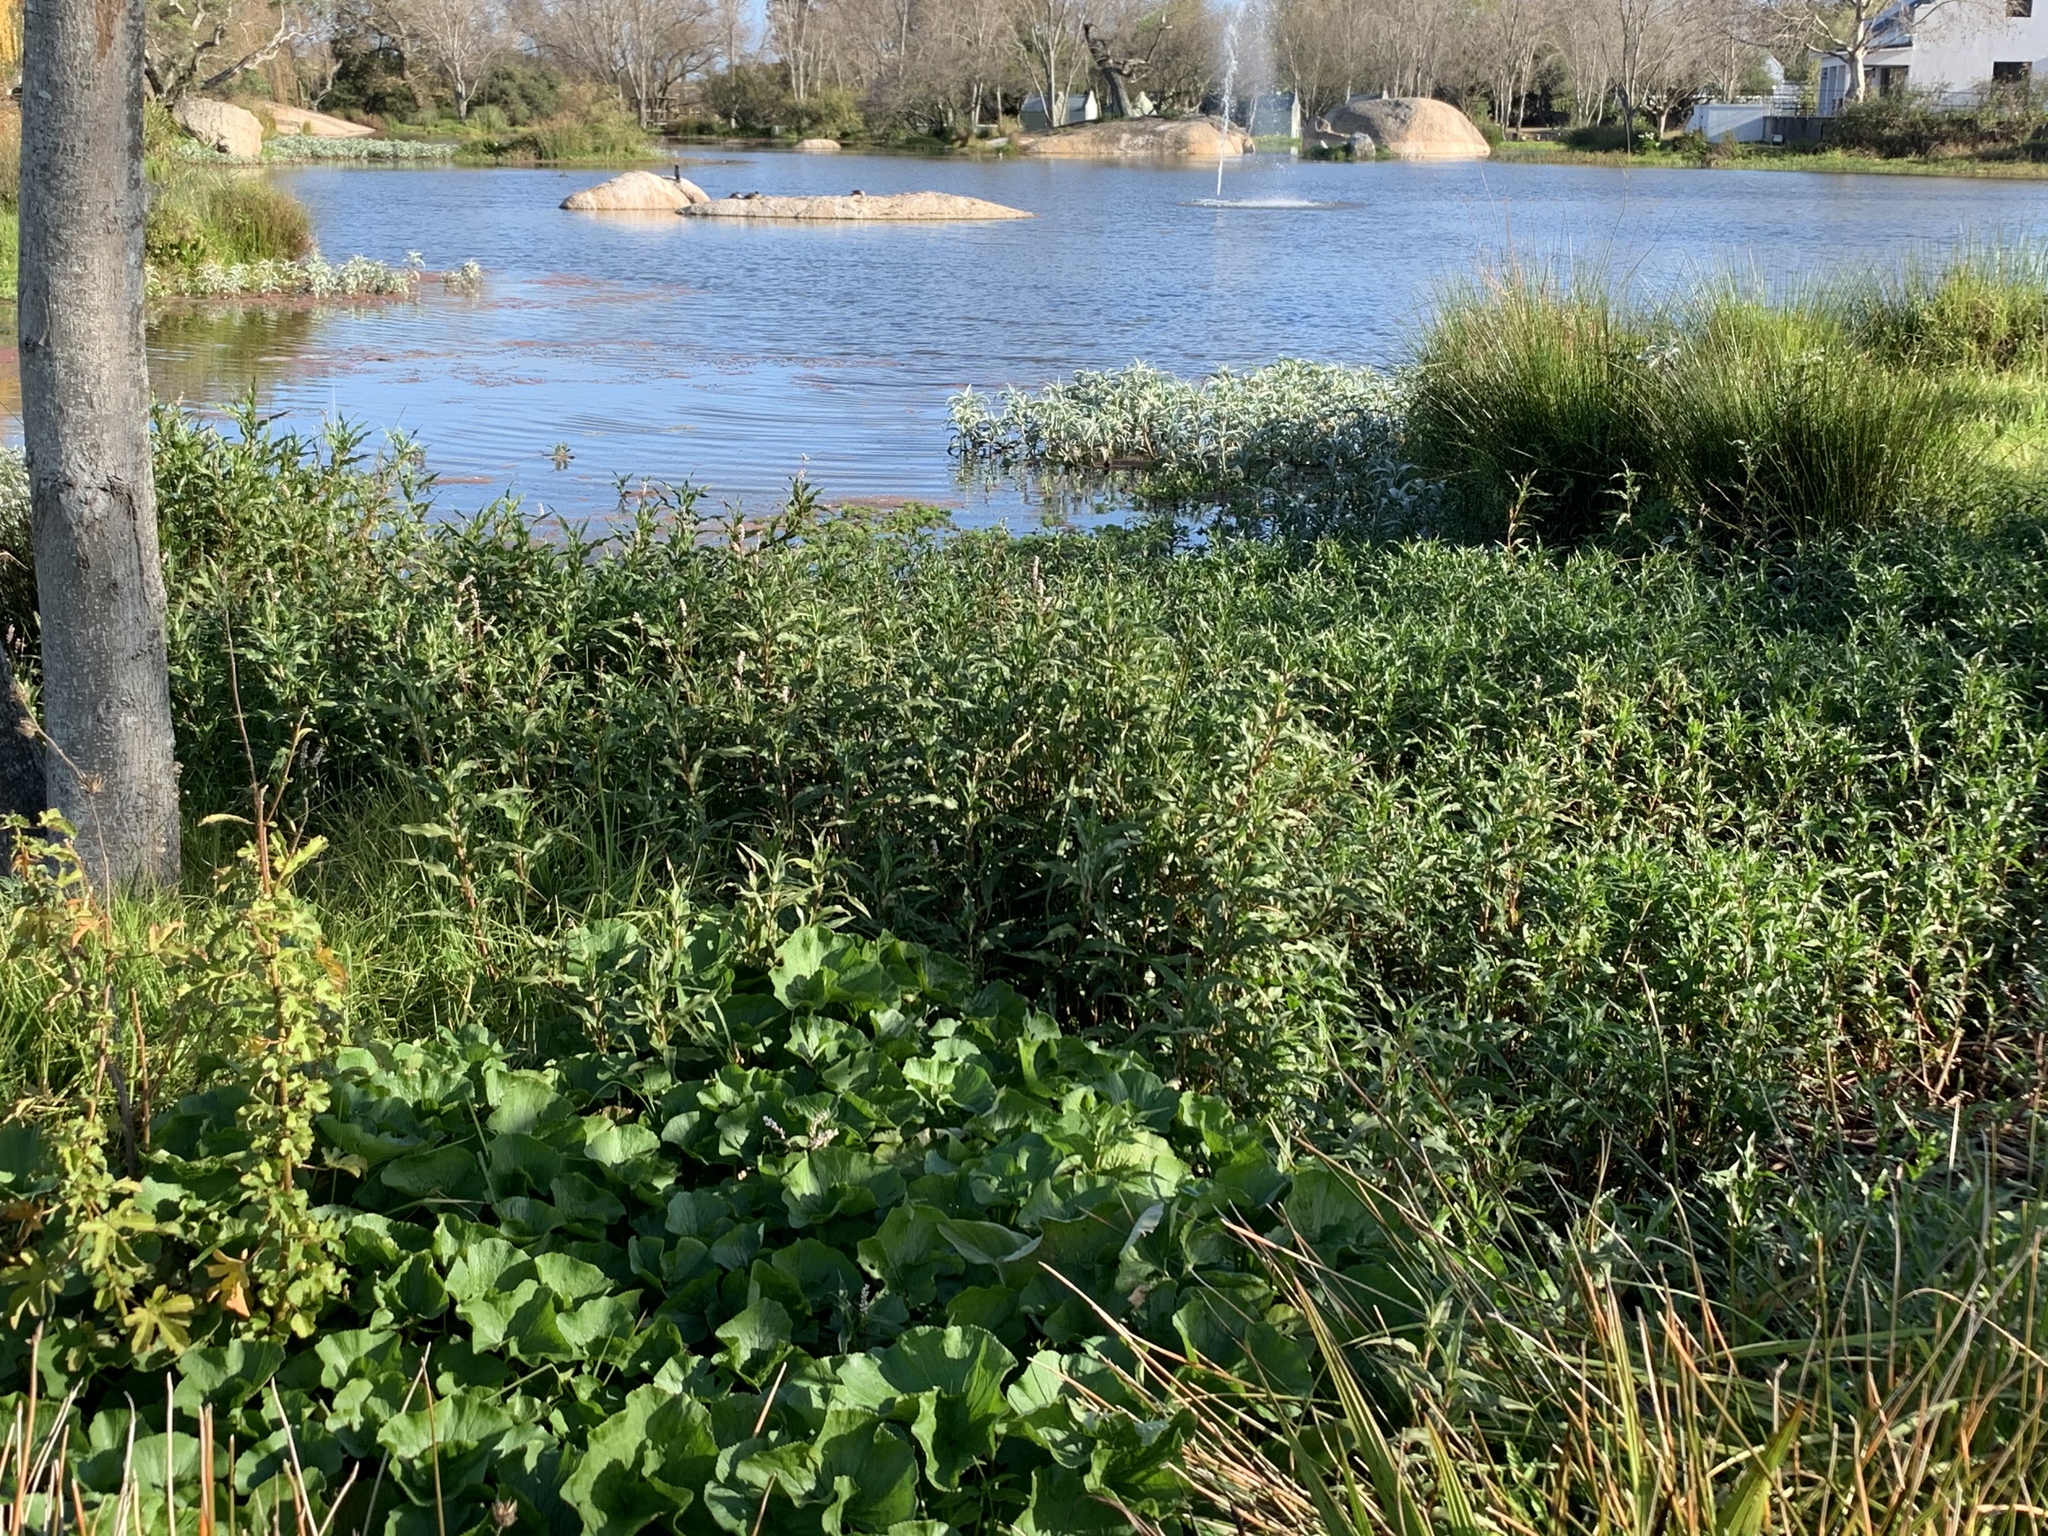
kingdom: Plantae
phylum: Tracheophyta
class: Magnoliopsida
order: Caryophyllales
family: Polygonaceae
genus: Persicaria
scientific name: Persicaria madagascariensis
